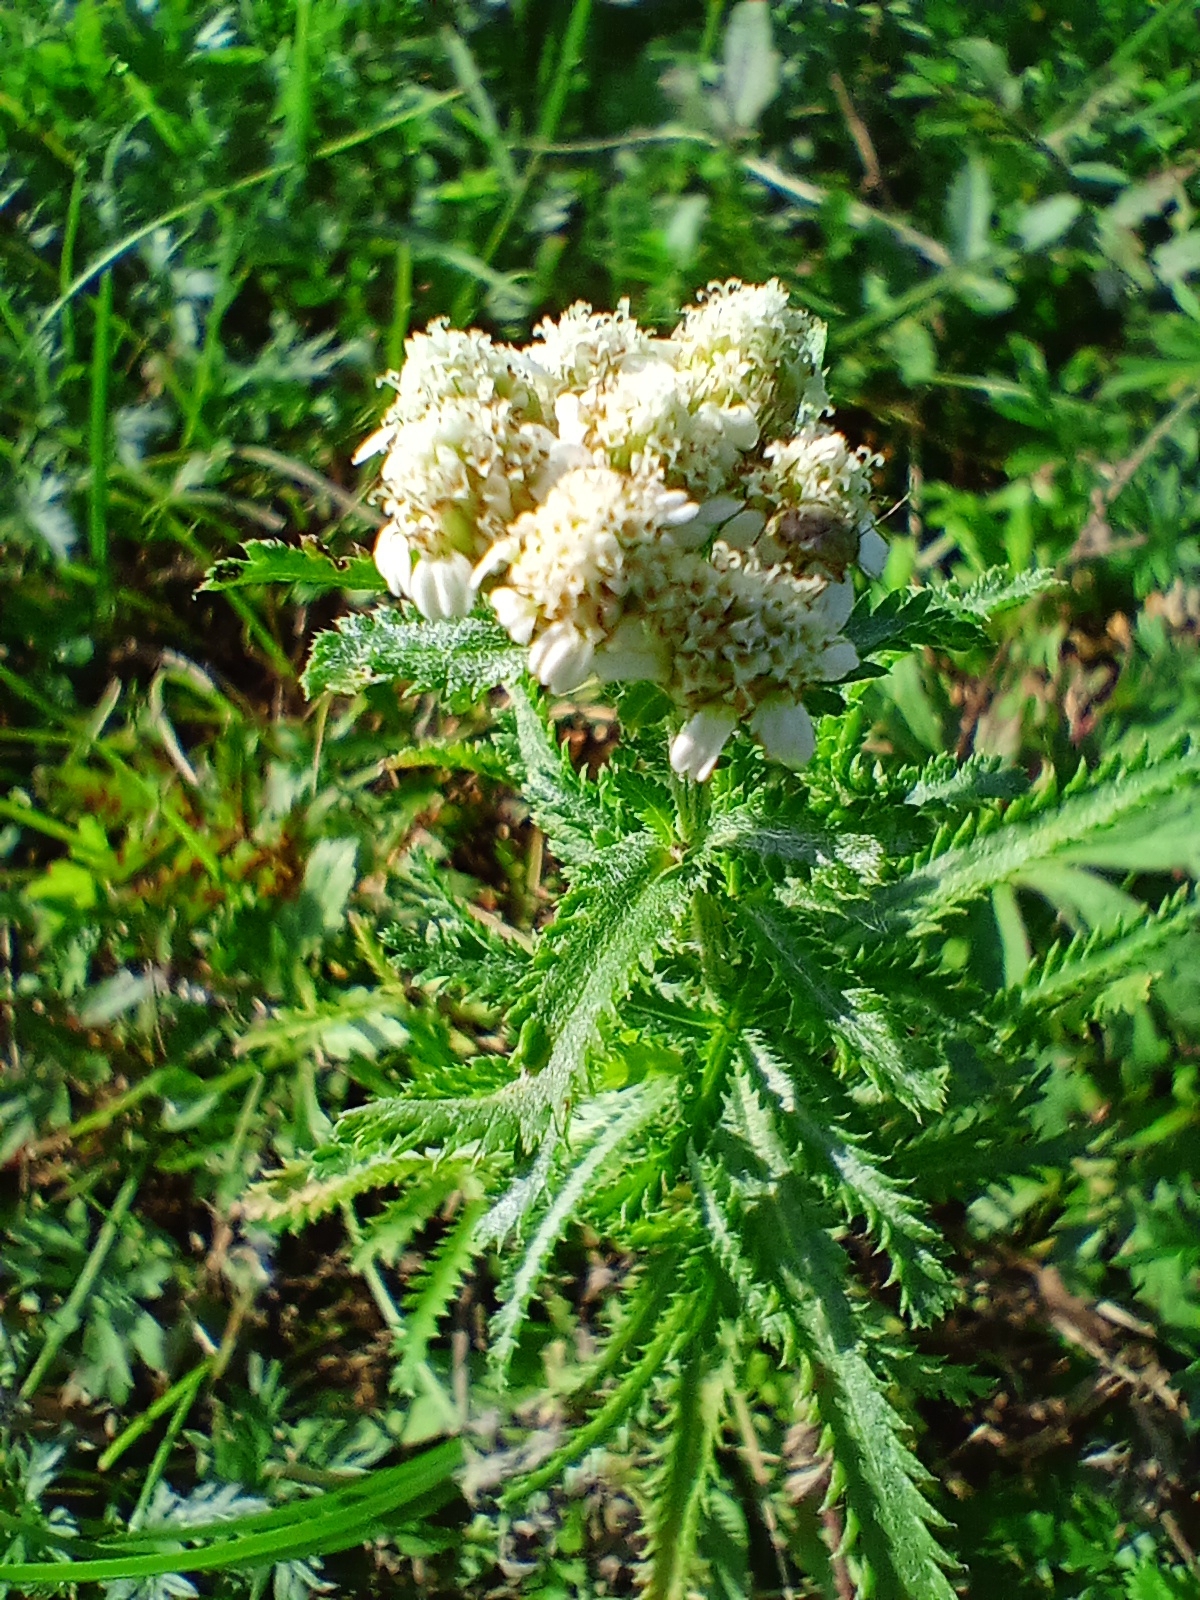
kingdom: Plantae
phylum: Tracheophyta
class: Magnoliopsida
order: Asterales
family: Asteraceae
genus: Achillea
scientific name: Achillea alpina
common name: Siberian yarrow
